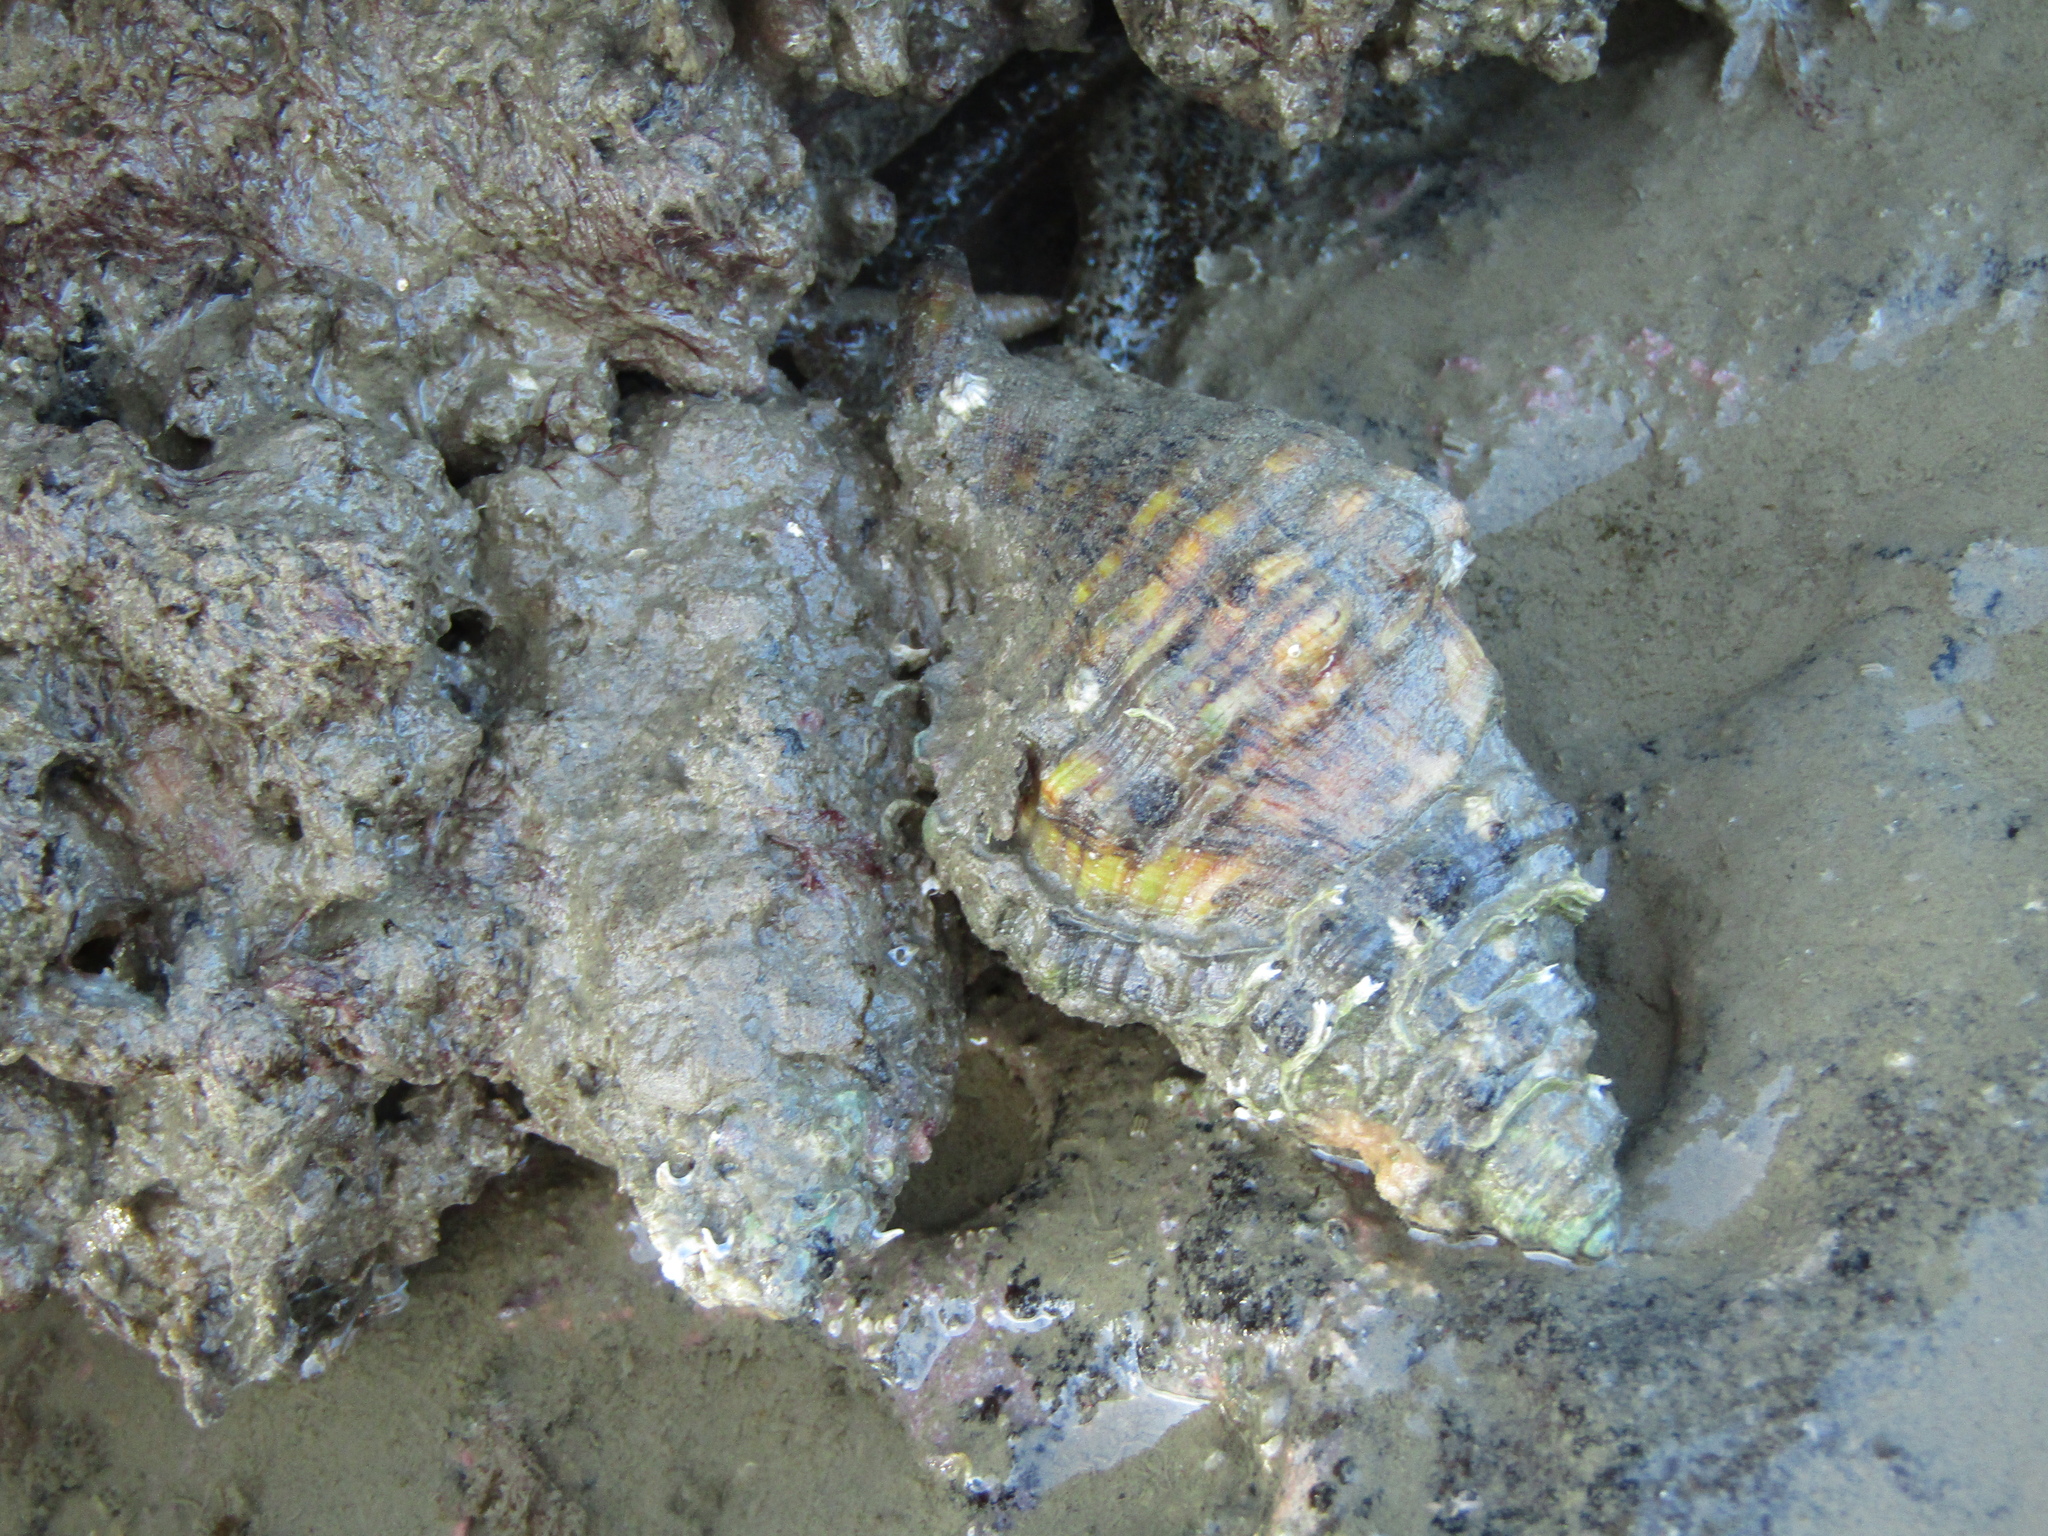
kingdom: Animalia
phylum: Mollusca
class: Gastropoda
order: Littorinimorpha
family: Cymatiidae
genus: Cabestana
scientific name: Cabestana spengleri
